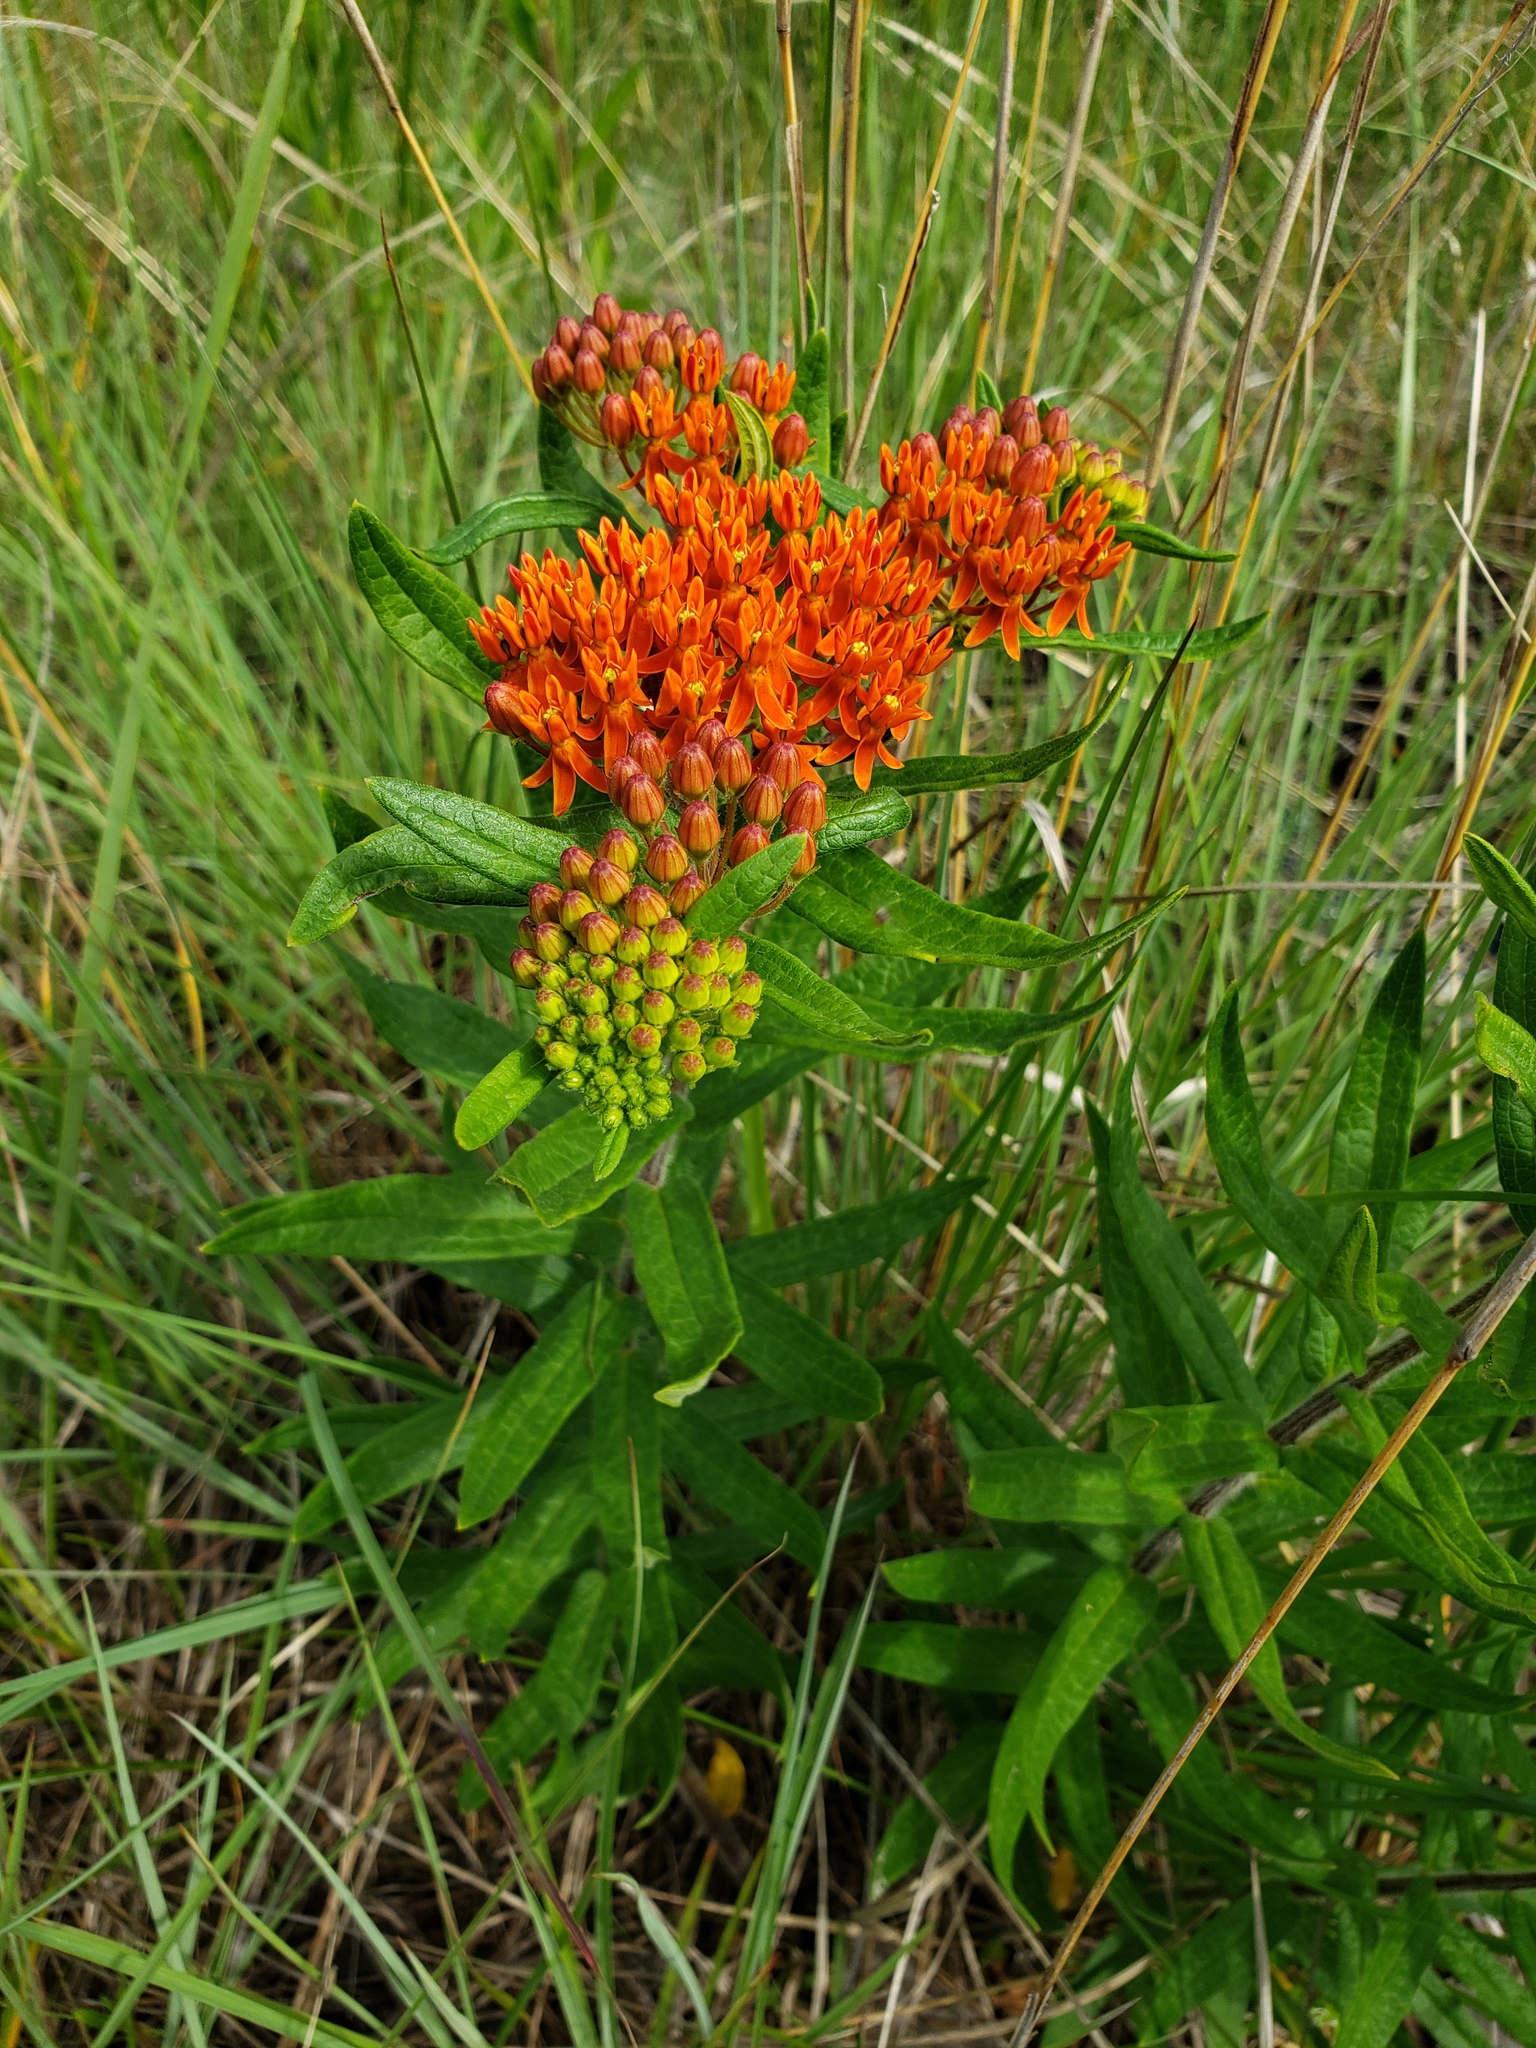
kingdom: Plantae
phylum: Tracheophyta
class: Magnoliopsida
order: Gentianales
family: Apocynaceae
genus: Asclepias
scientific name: Asclepias tuberosa
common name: Butterfly milkweed
